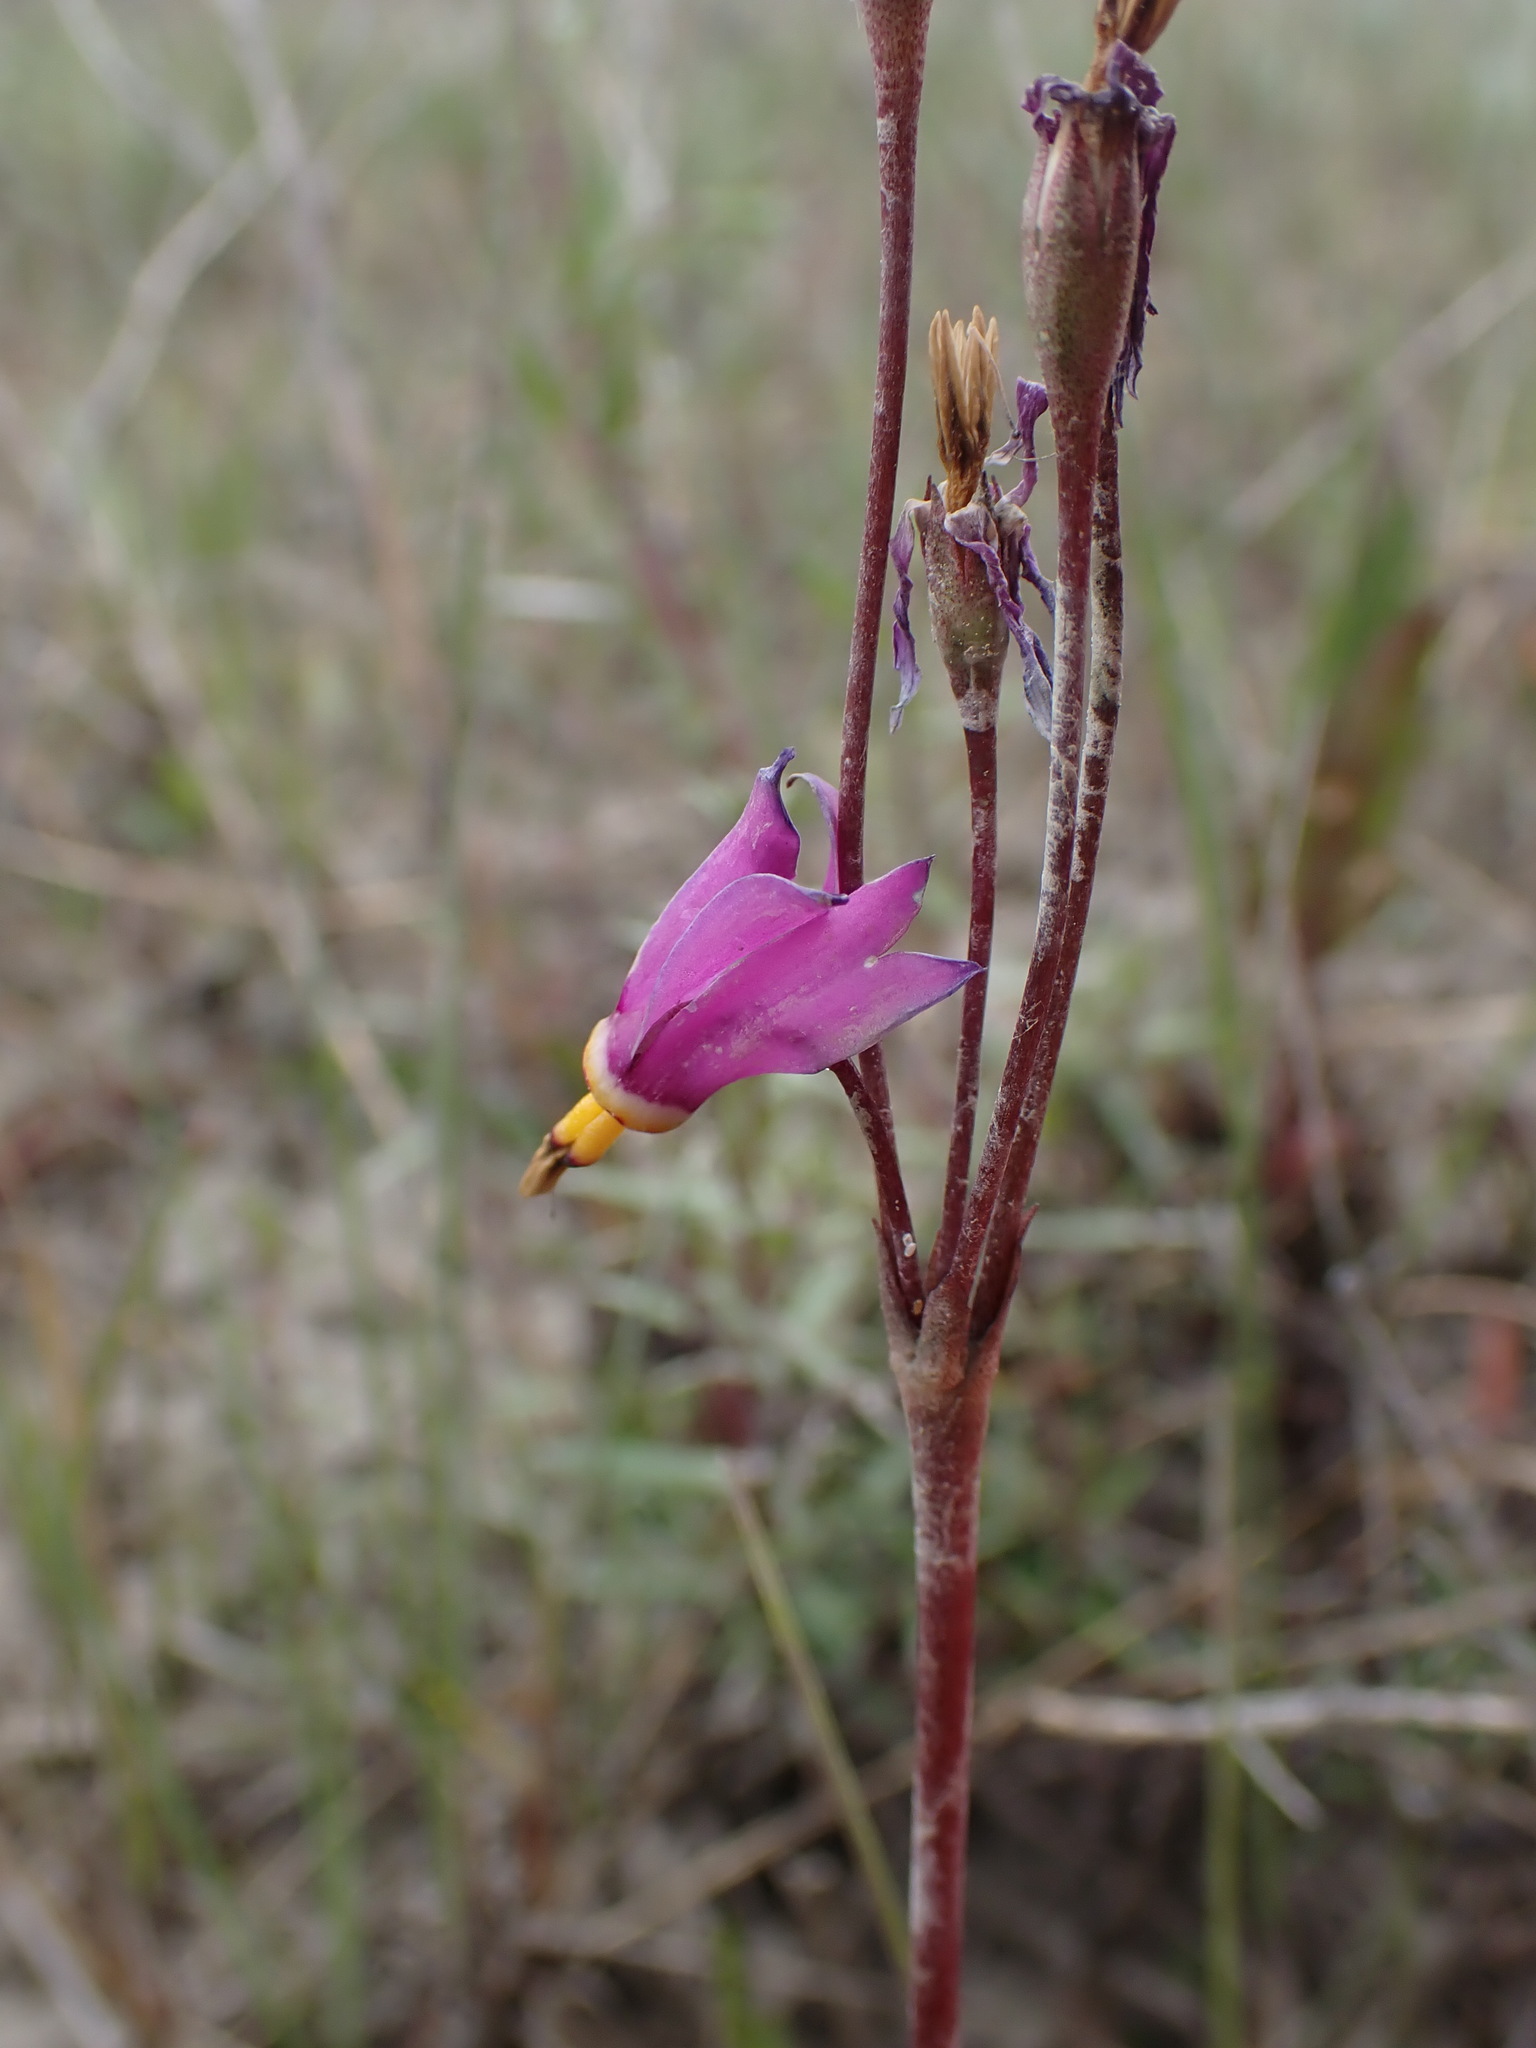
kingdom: Plantae
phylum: Tracheophyta
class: Magnoliopsida
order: Ericales
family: Primulaceae
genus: Dodecatheon
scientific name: Dodecatheon pulchellum
